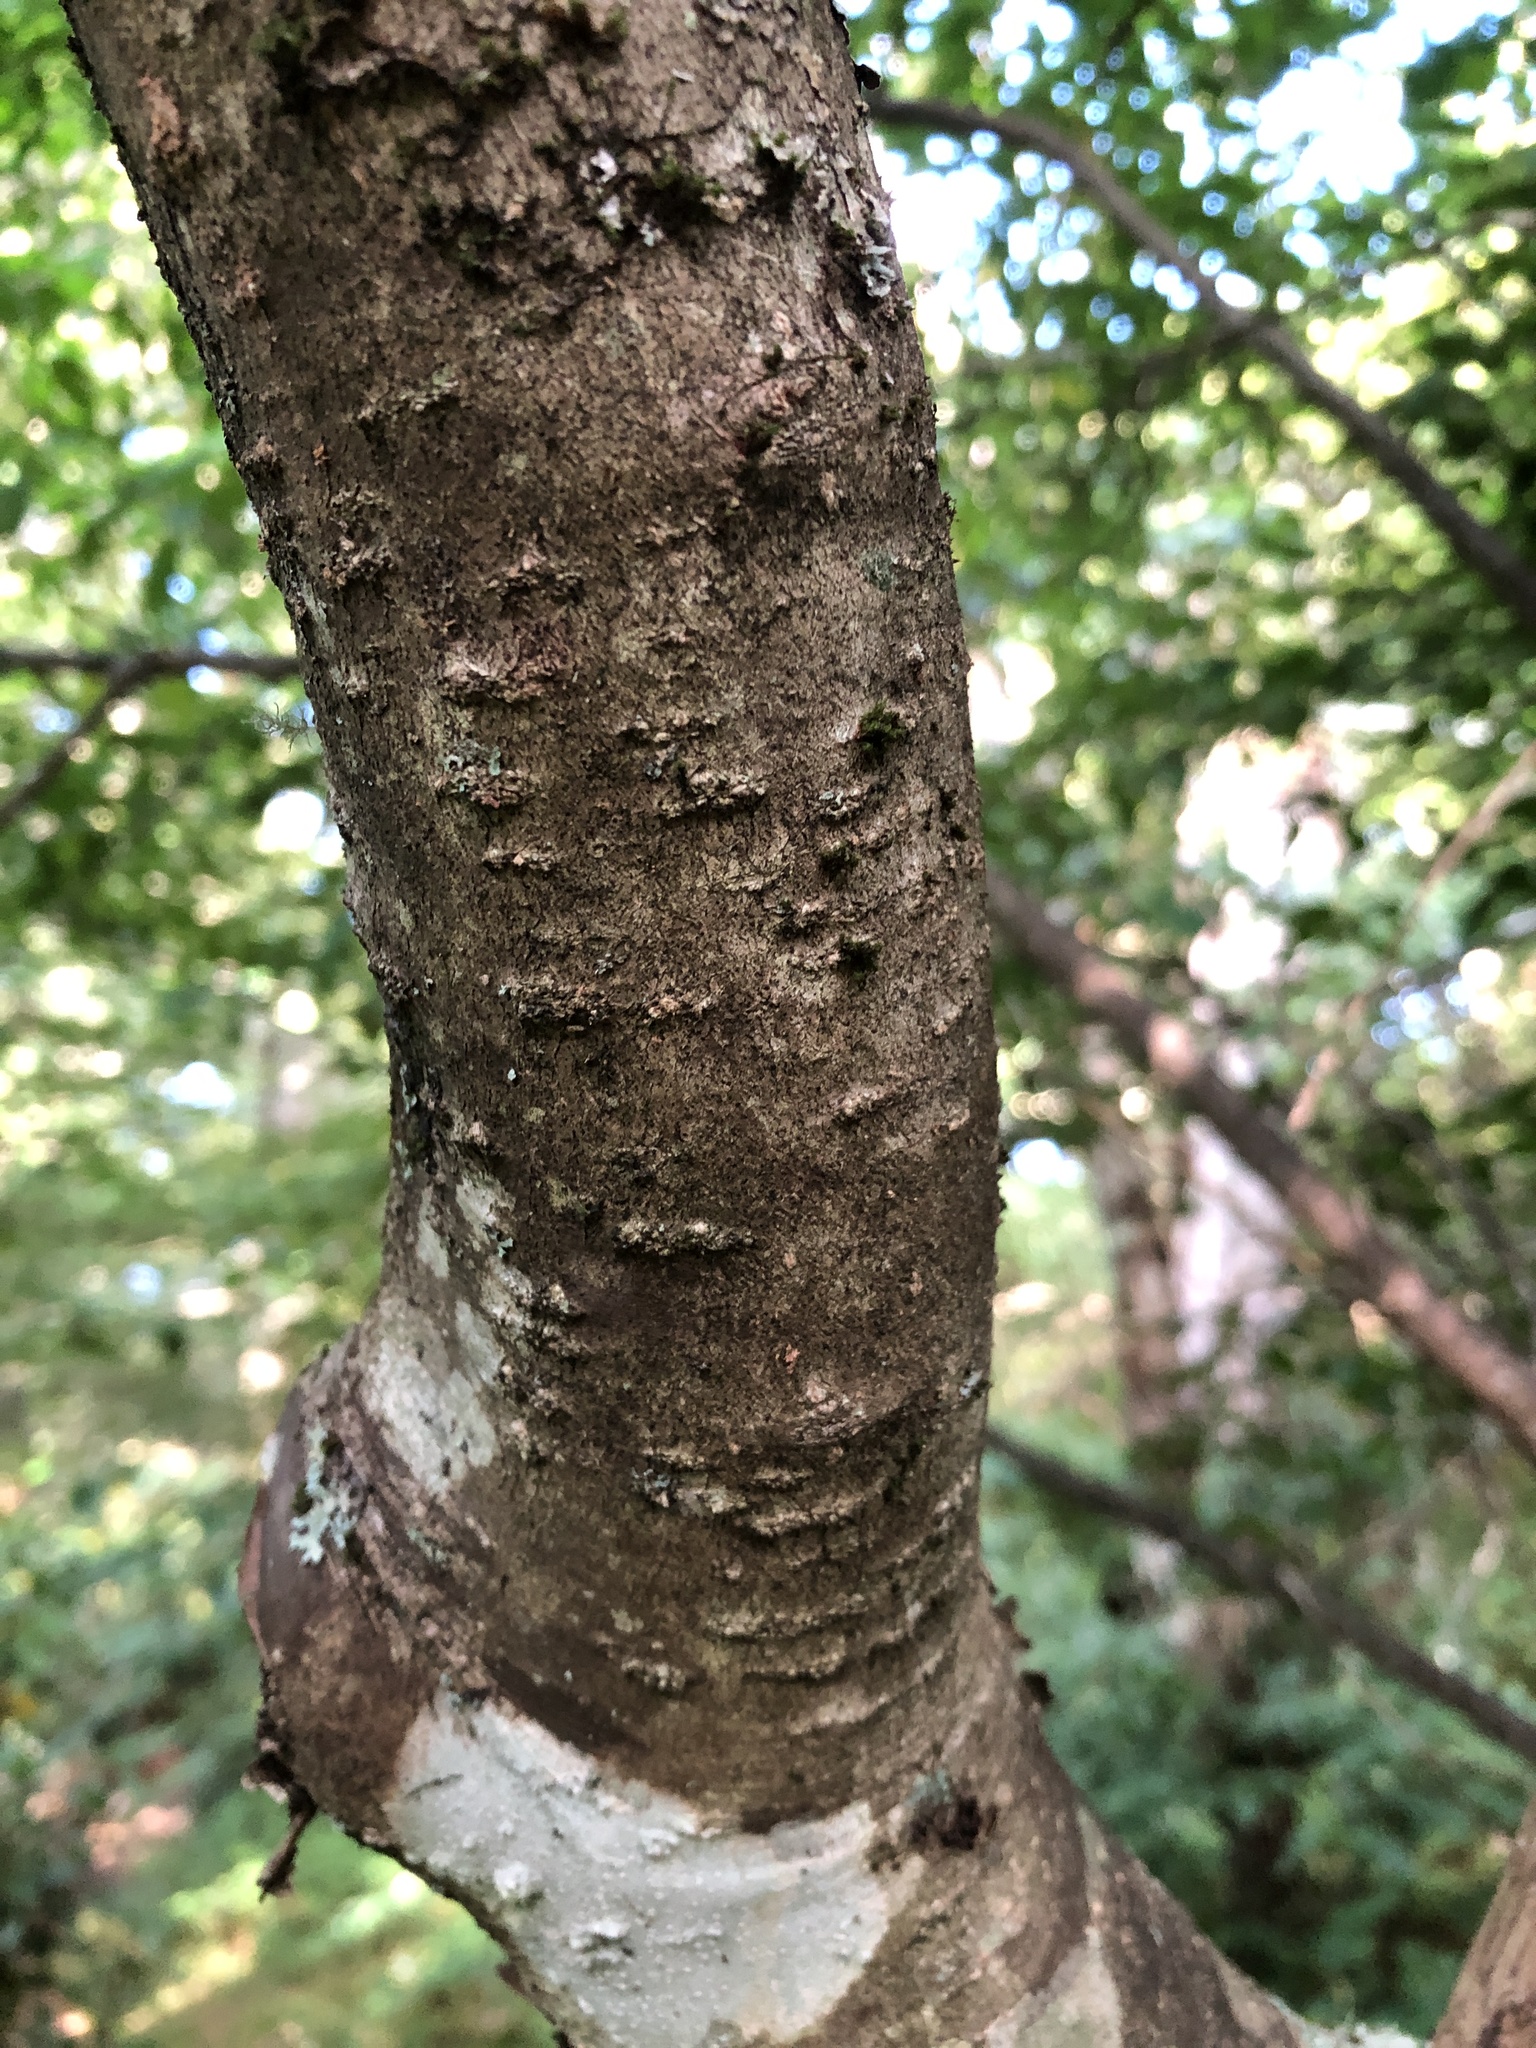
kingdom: Plantae
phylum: Tracheophyta
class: Magnoliopsida
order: Aquifoliales
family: Aquifoliaceae
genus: Ilex
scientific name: Ilex montana
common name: Mountain winterberry
